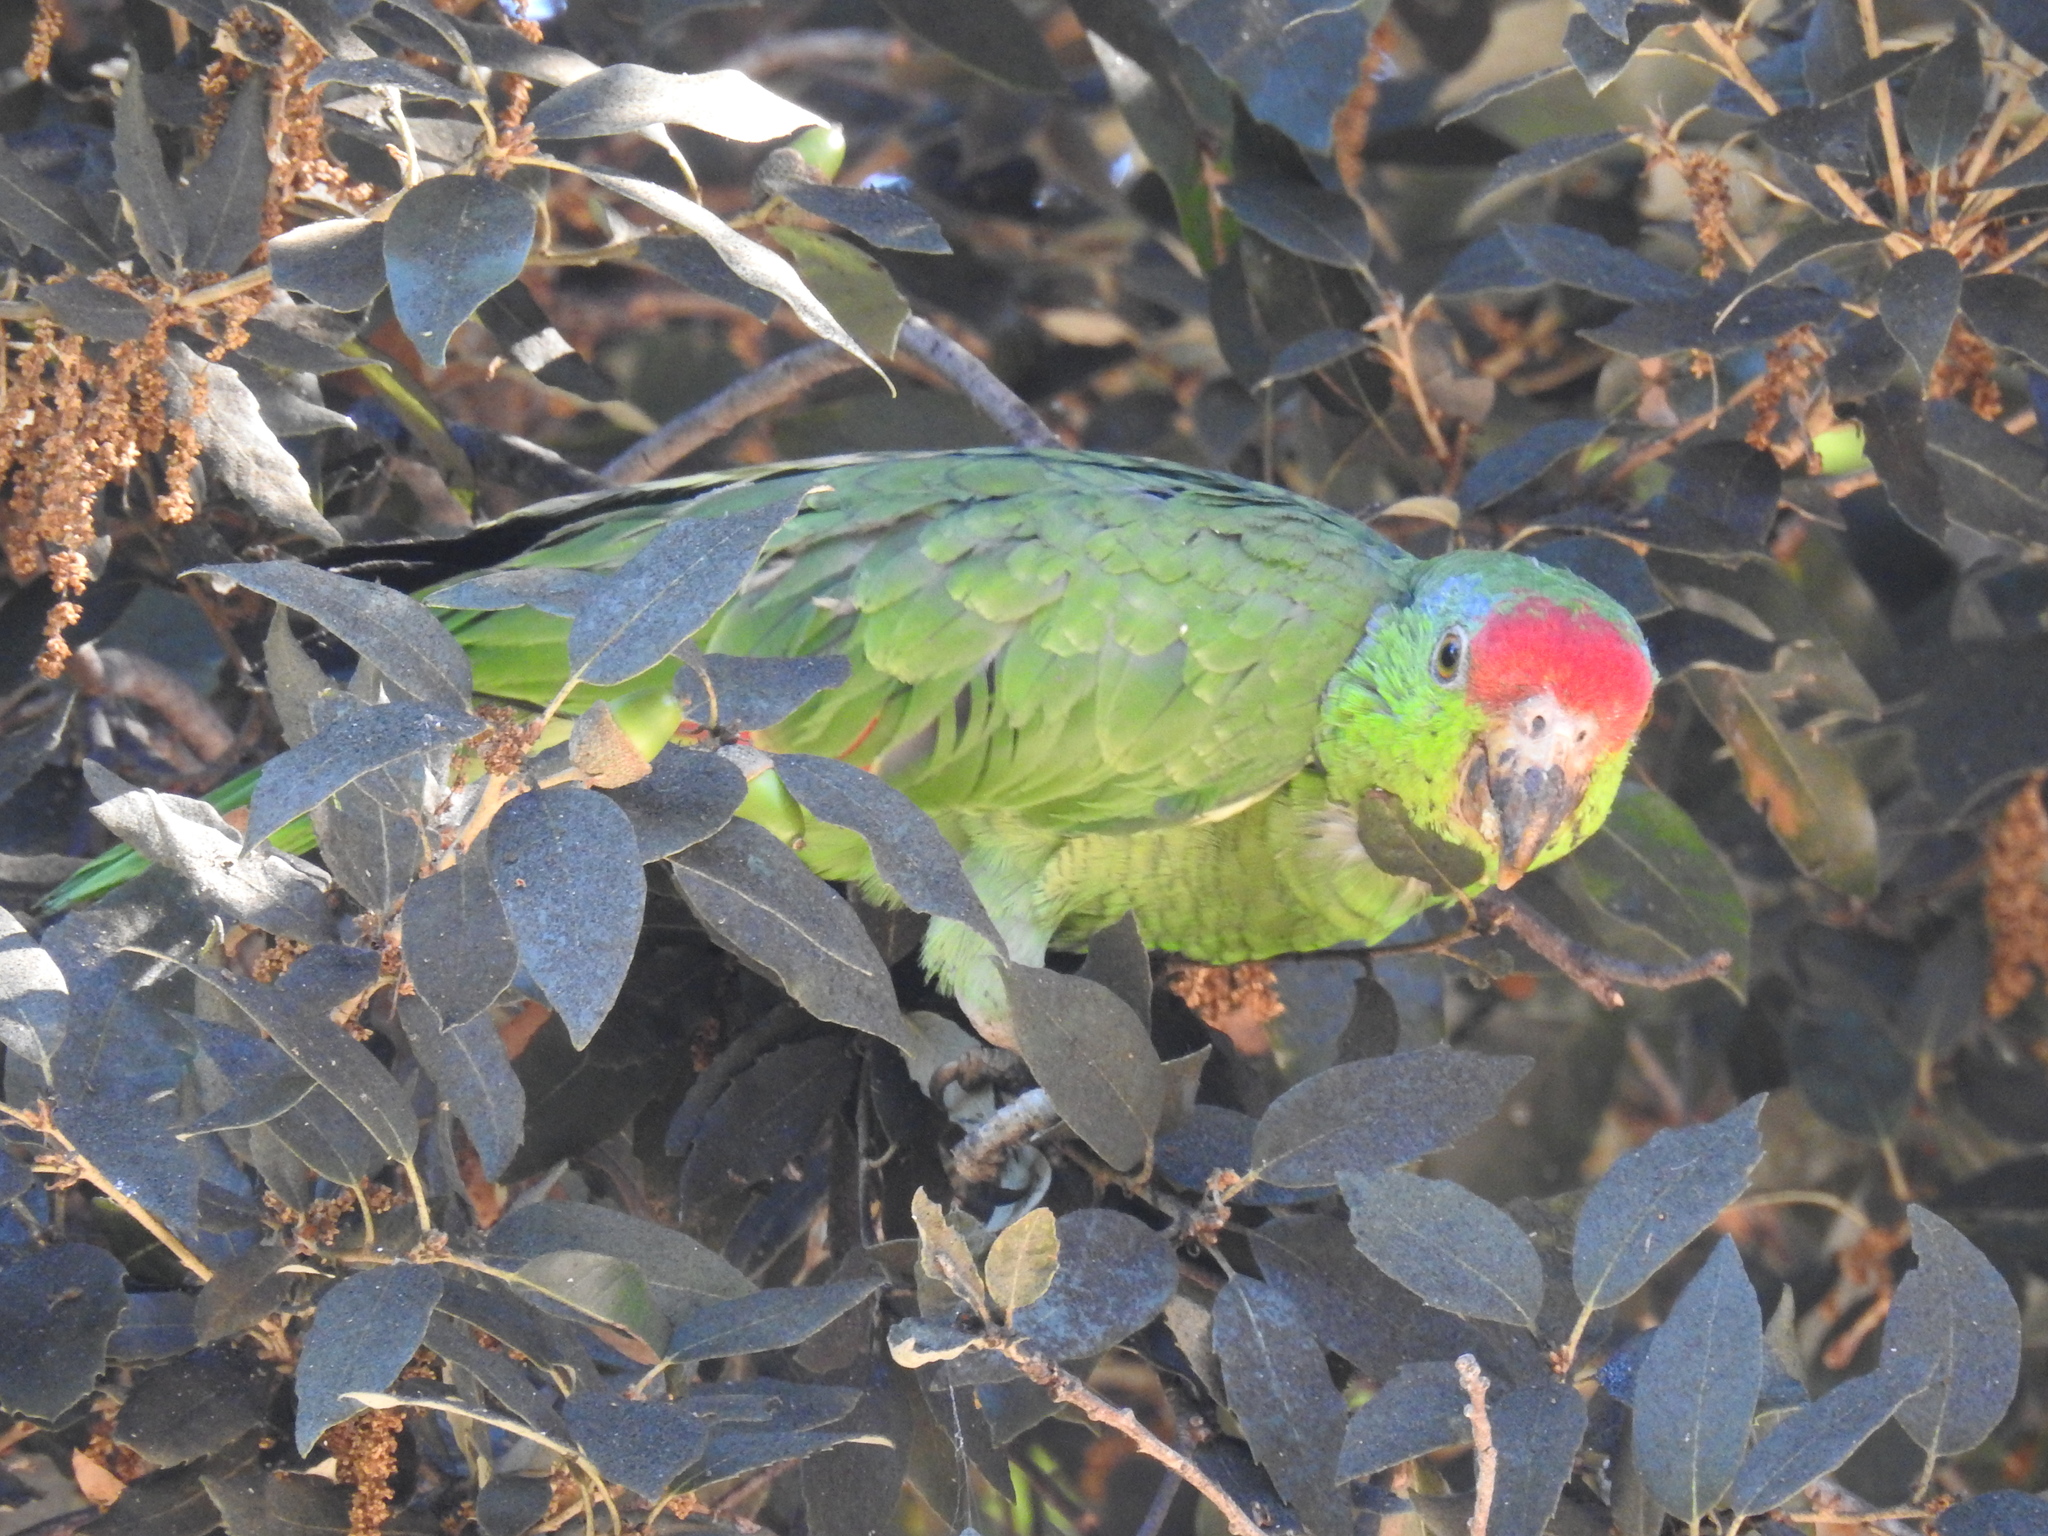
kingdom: Animalia
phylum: Chordata
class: Aves
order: Psittaciformes
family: Psittacidae
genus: Amazona
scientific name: Amazona viridigenalis
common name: Red-crowned amazon
